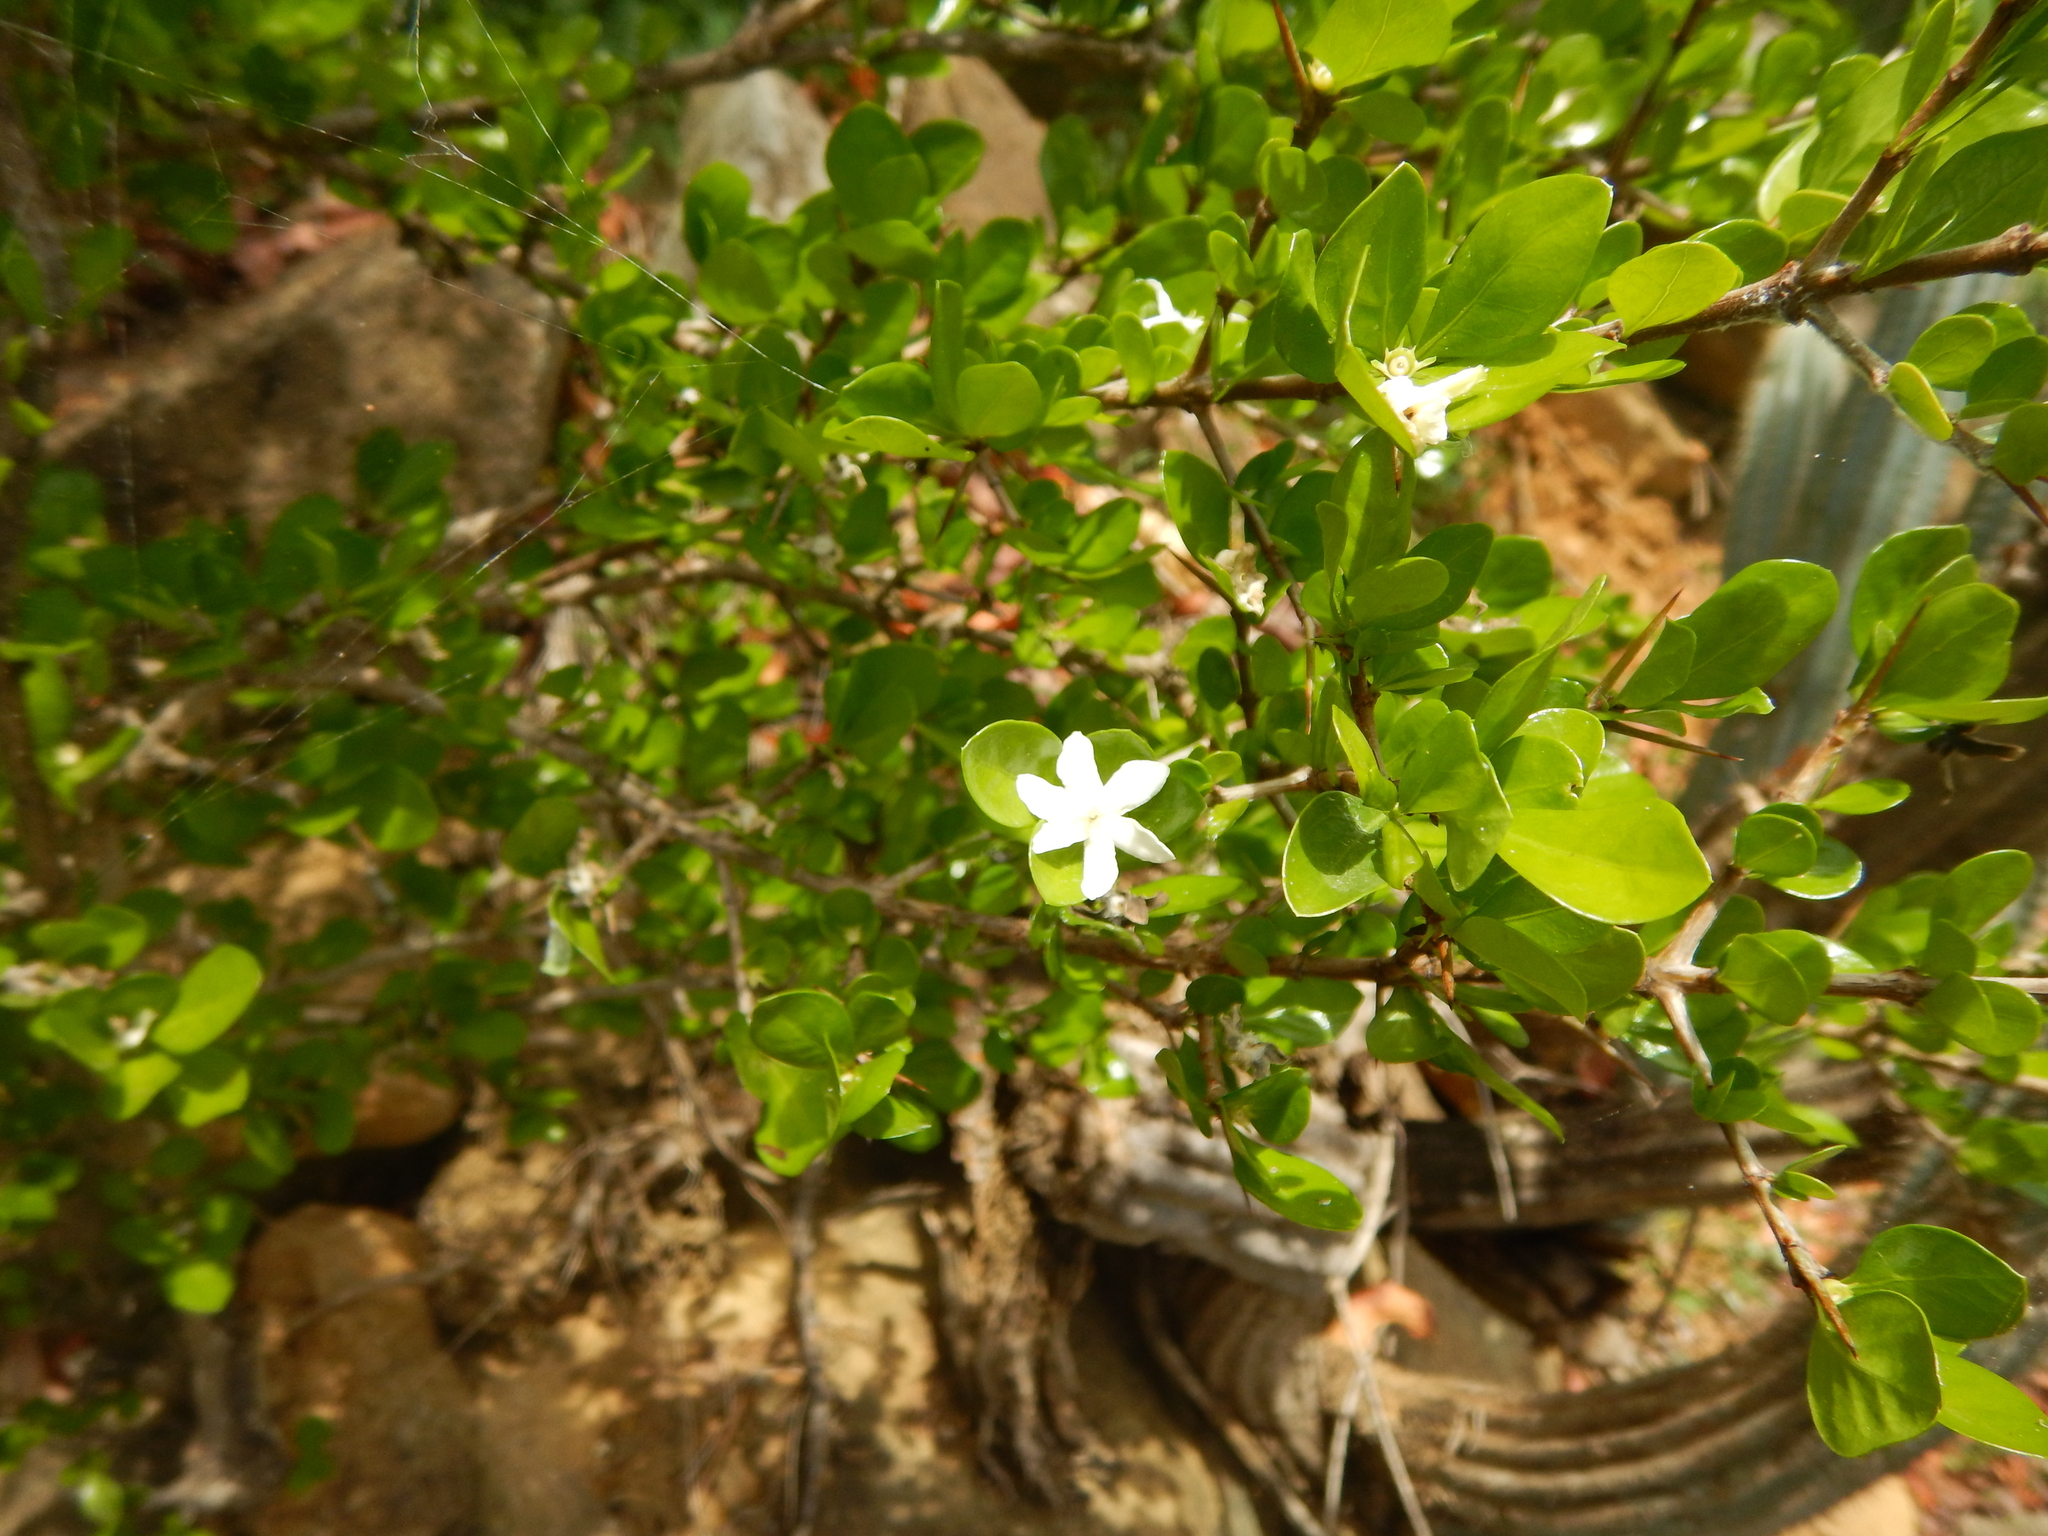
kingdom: Plantae
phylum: Tracheophyta
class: Magnoliopsida
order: Gentianales
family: Rubiaceae
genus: Randia
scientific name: Randia aculeata
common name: Inkberry
